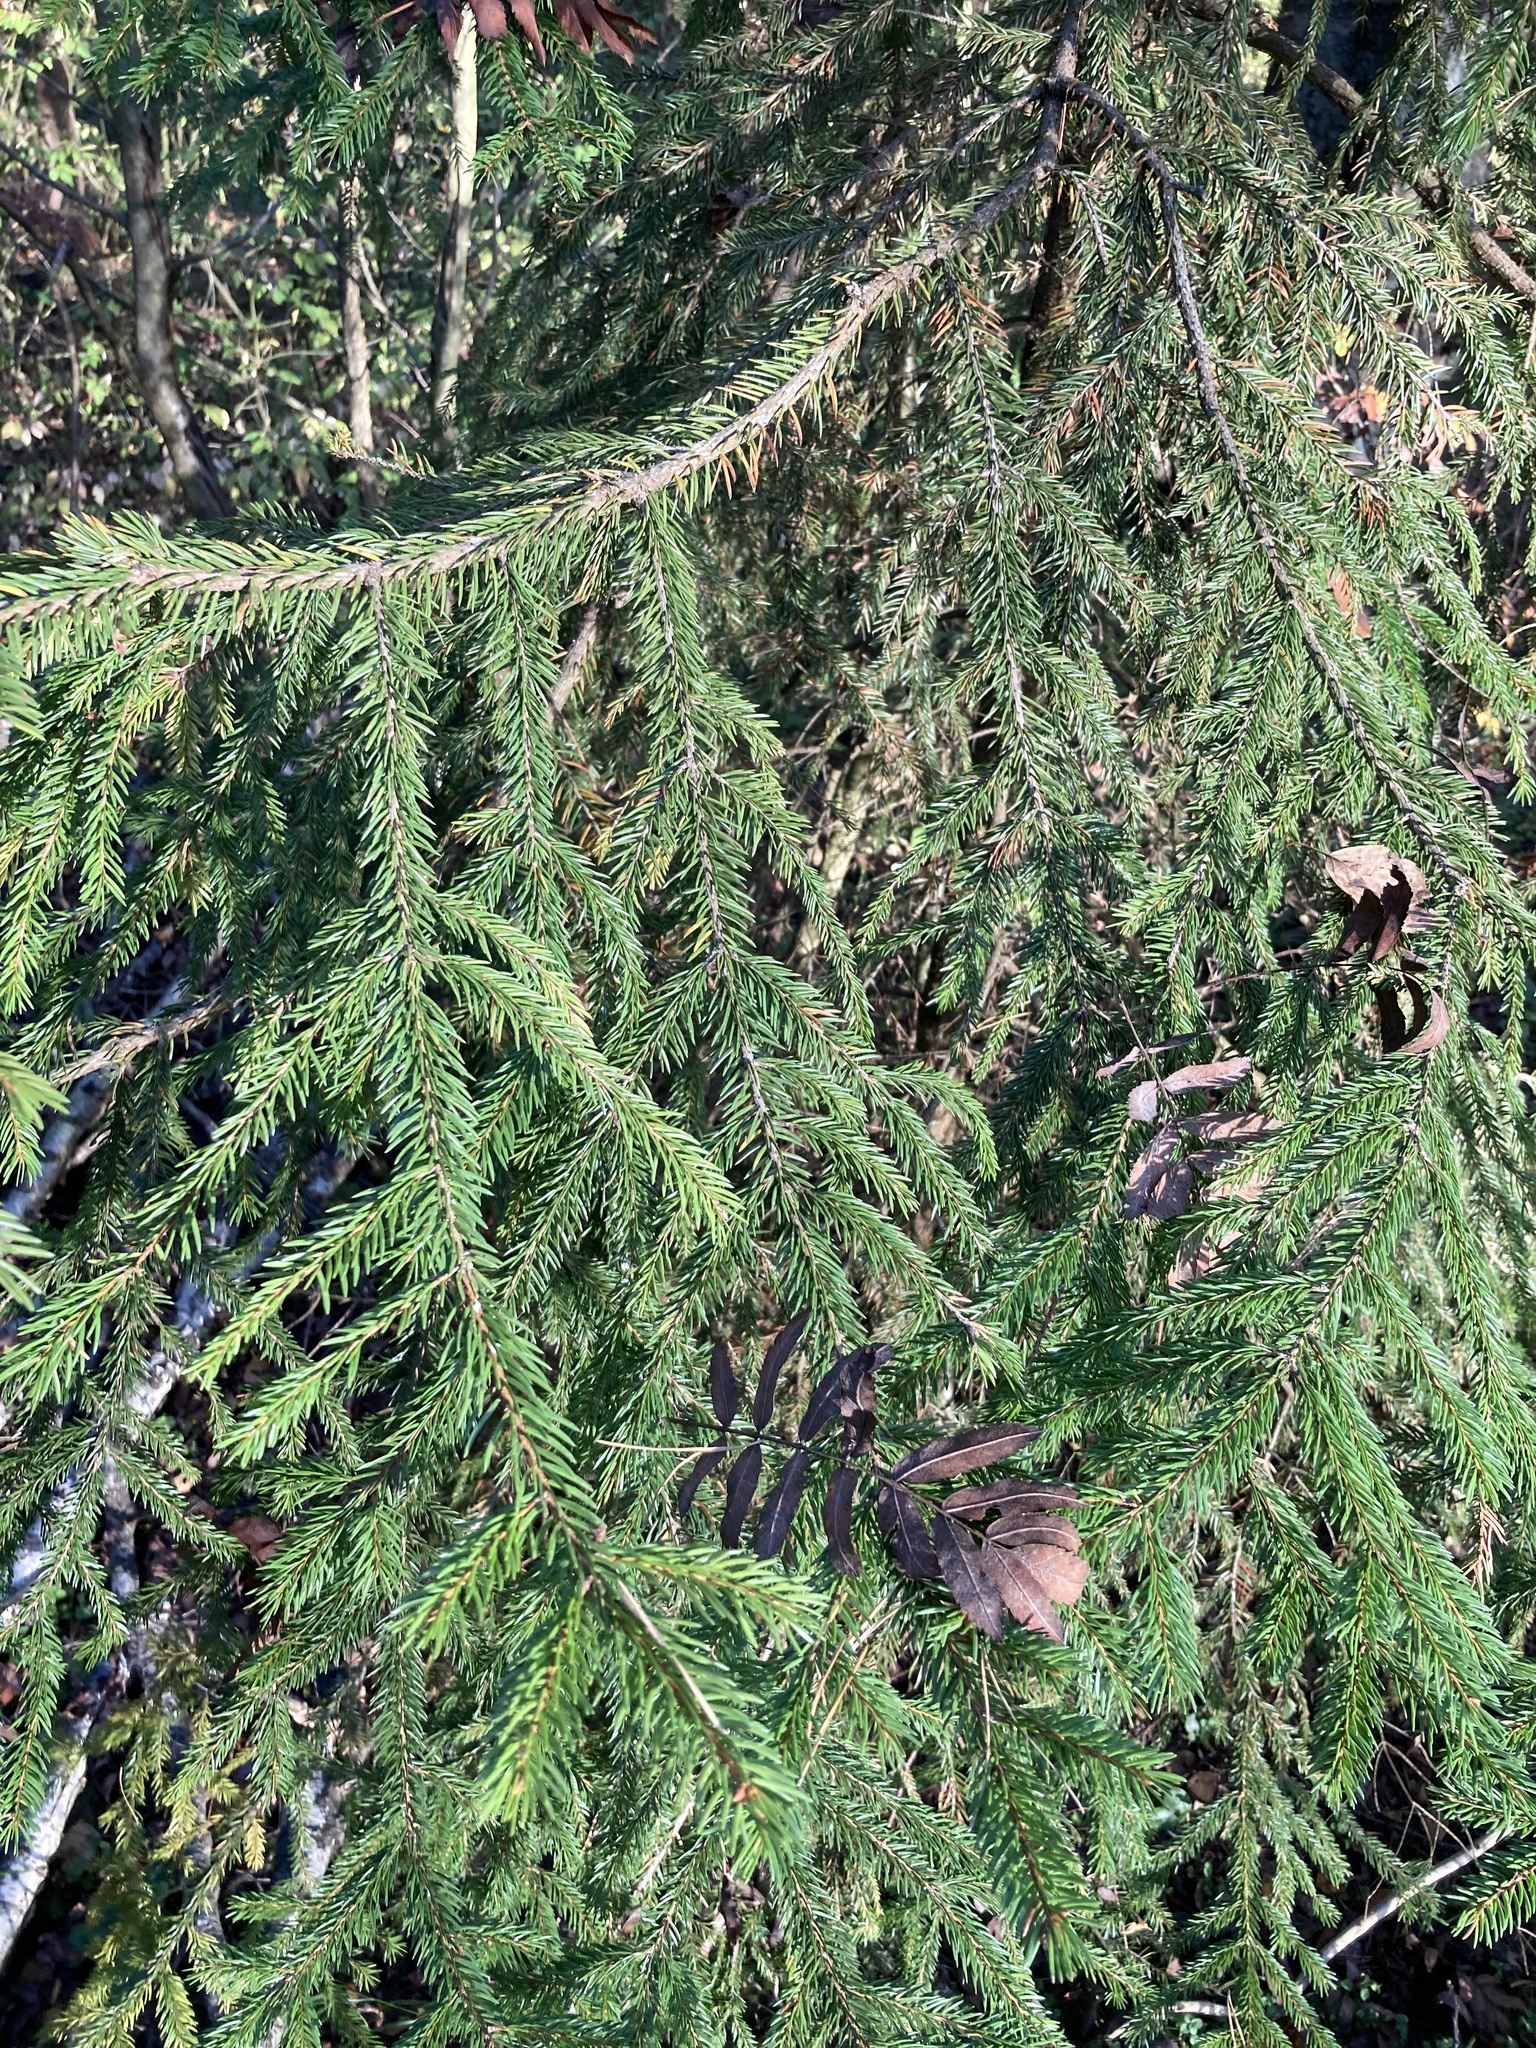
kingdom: Plantae
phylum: Tracheophyta
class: Pinopsida
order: Pinales
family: Pinaceae
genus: Picea
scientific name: Picea abies
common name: Norway spruce
